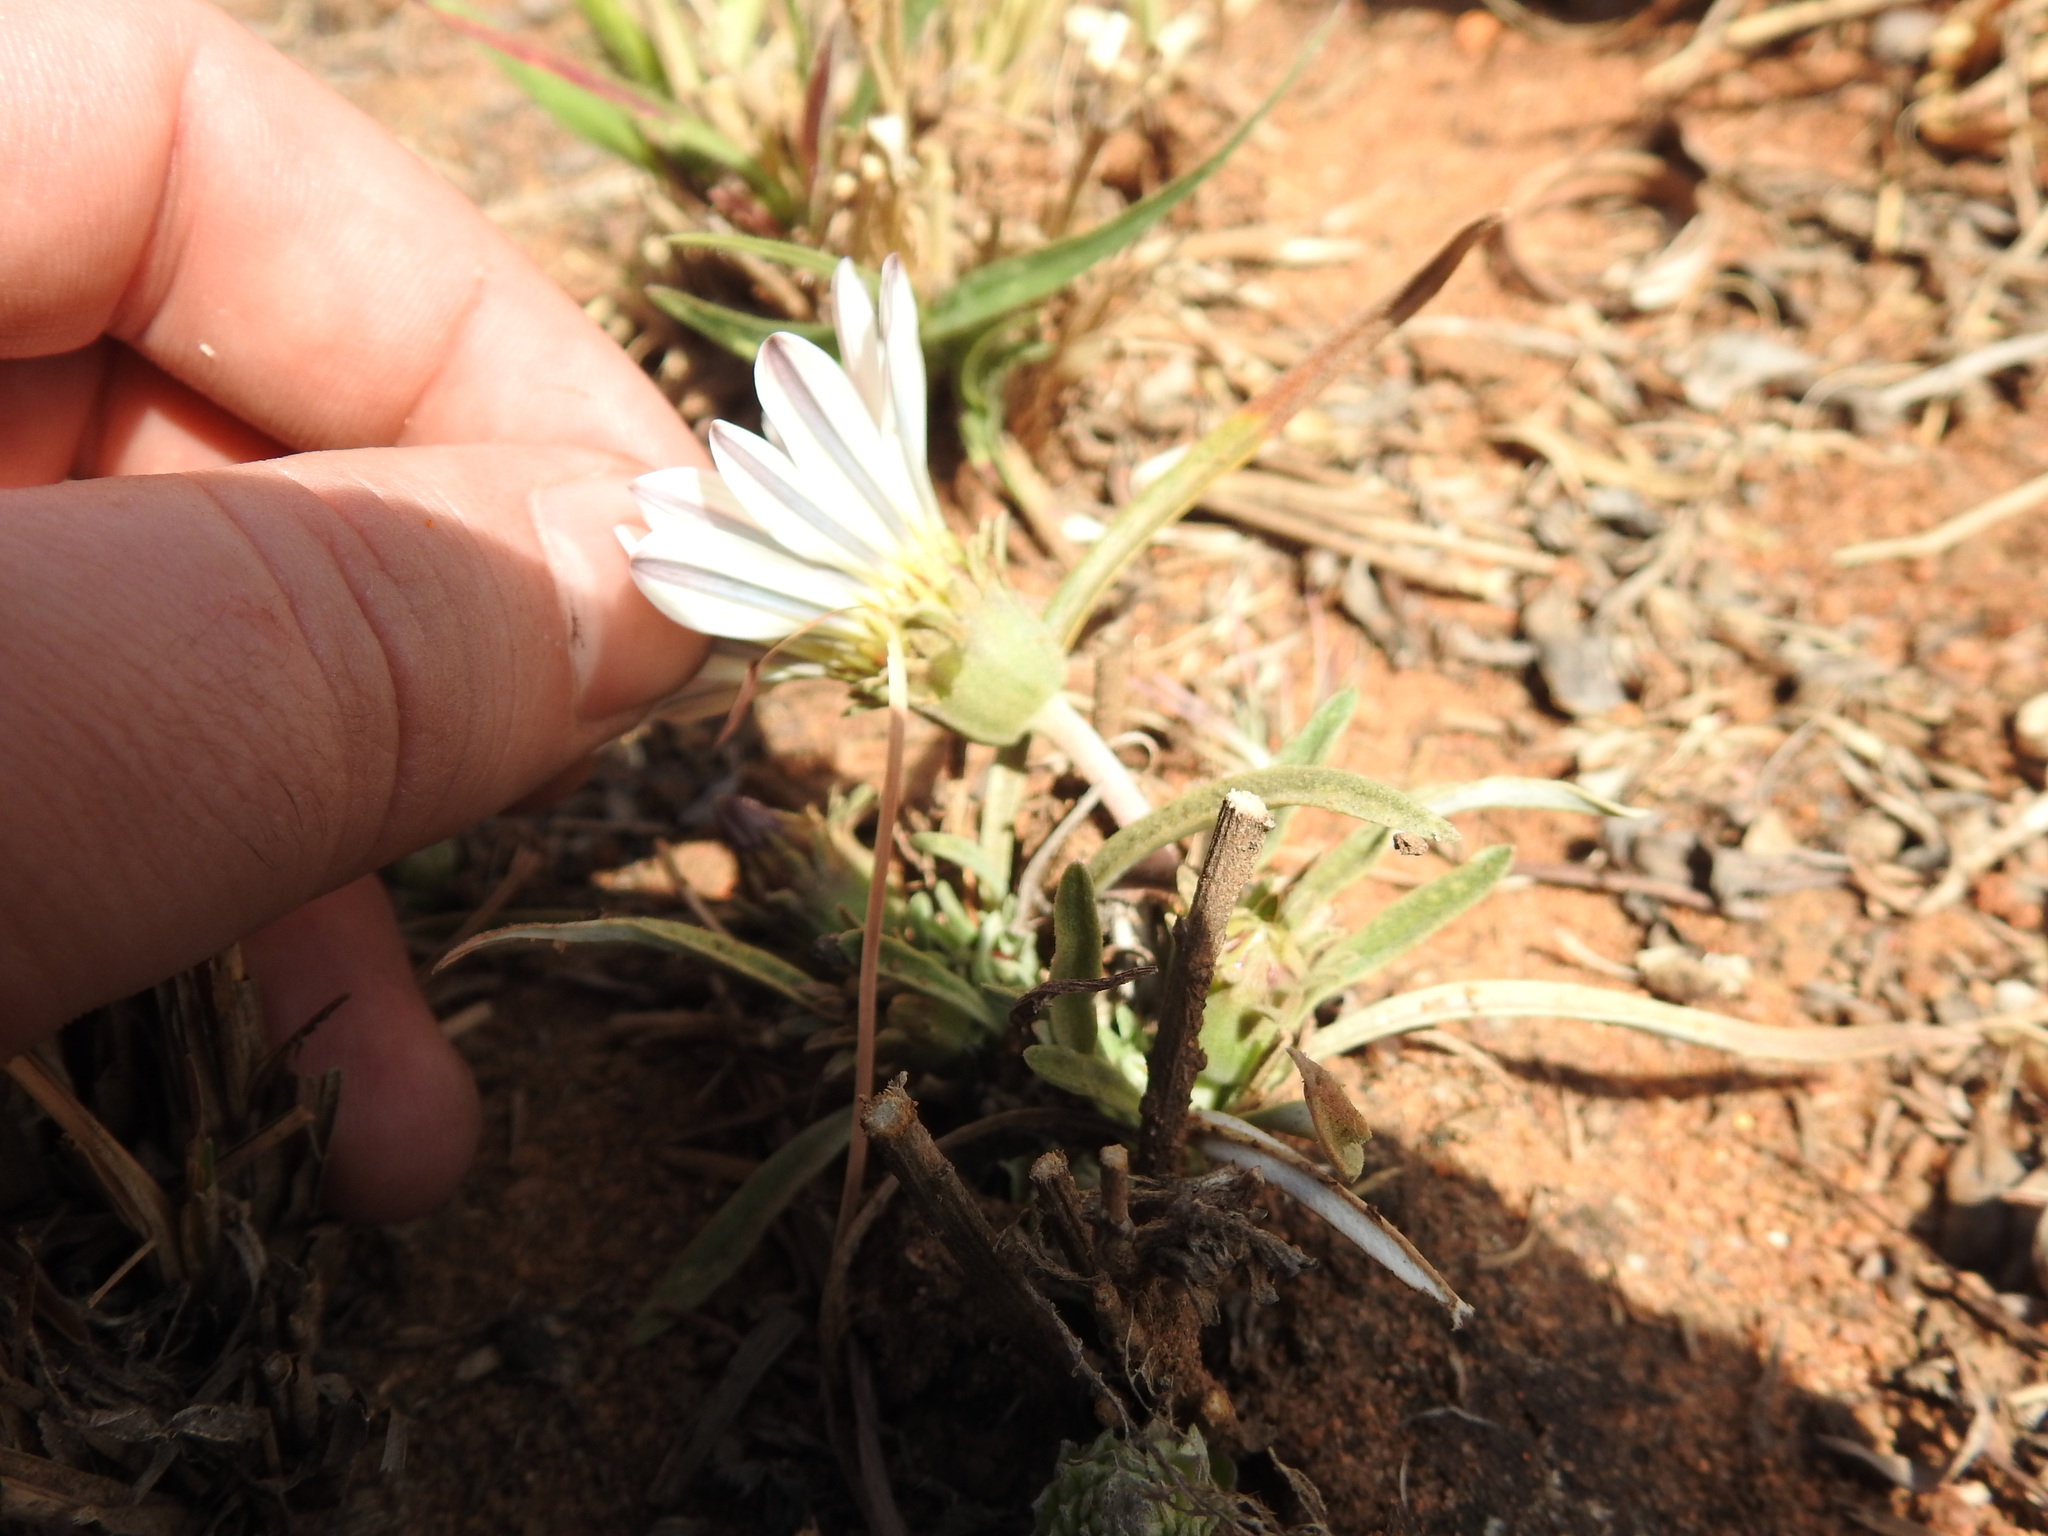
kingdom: Plantae
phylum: Tracheophyta
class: Magnoliopsida
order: Asterales
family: Asteraceae
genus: Gazania
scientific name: Gazania krebsiana
